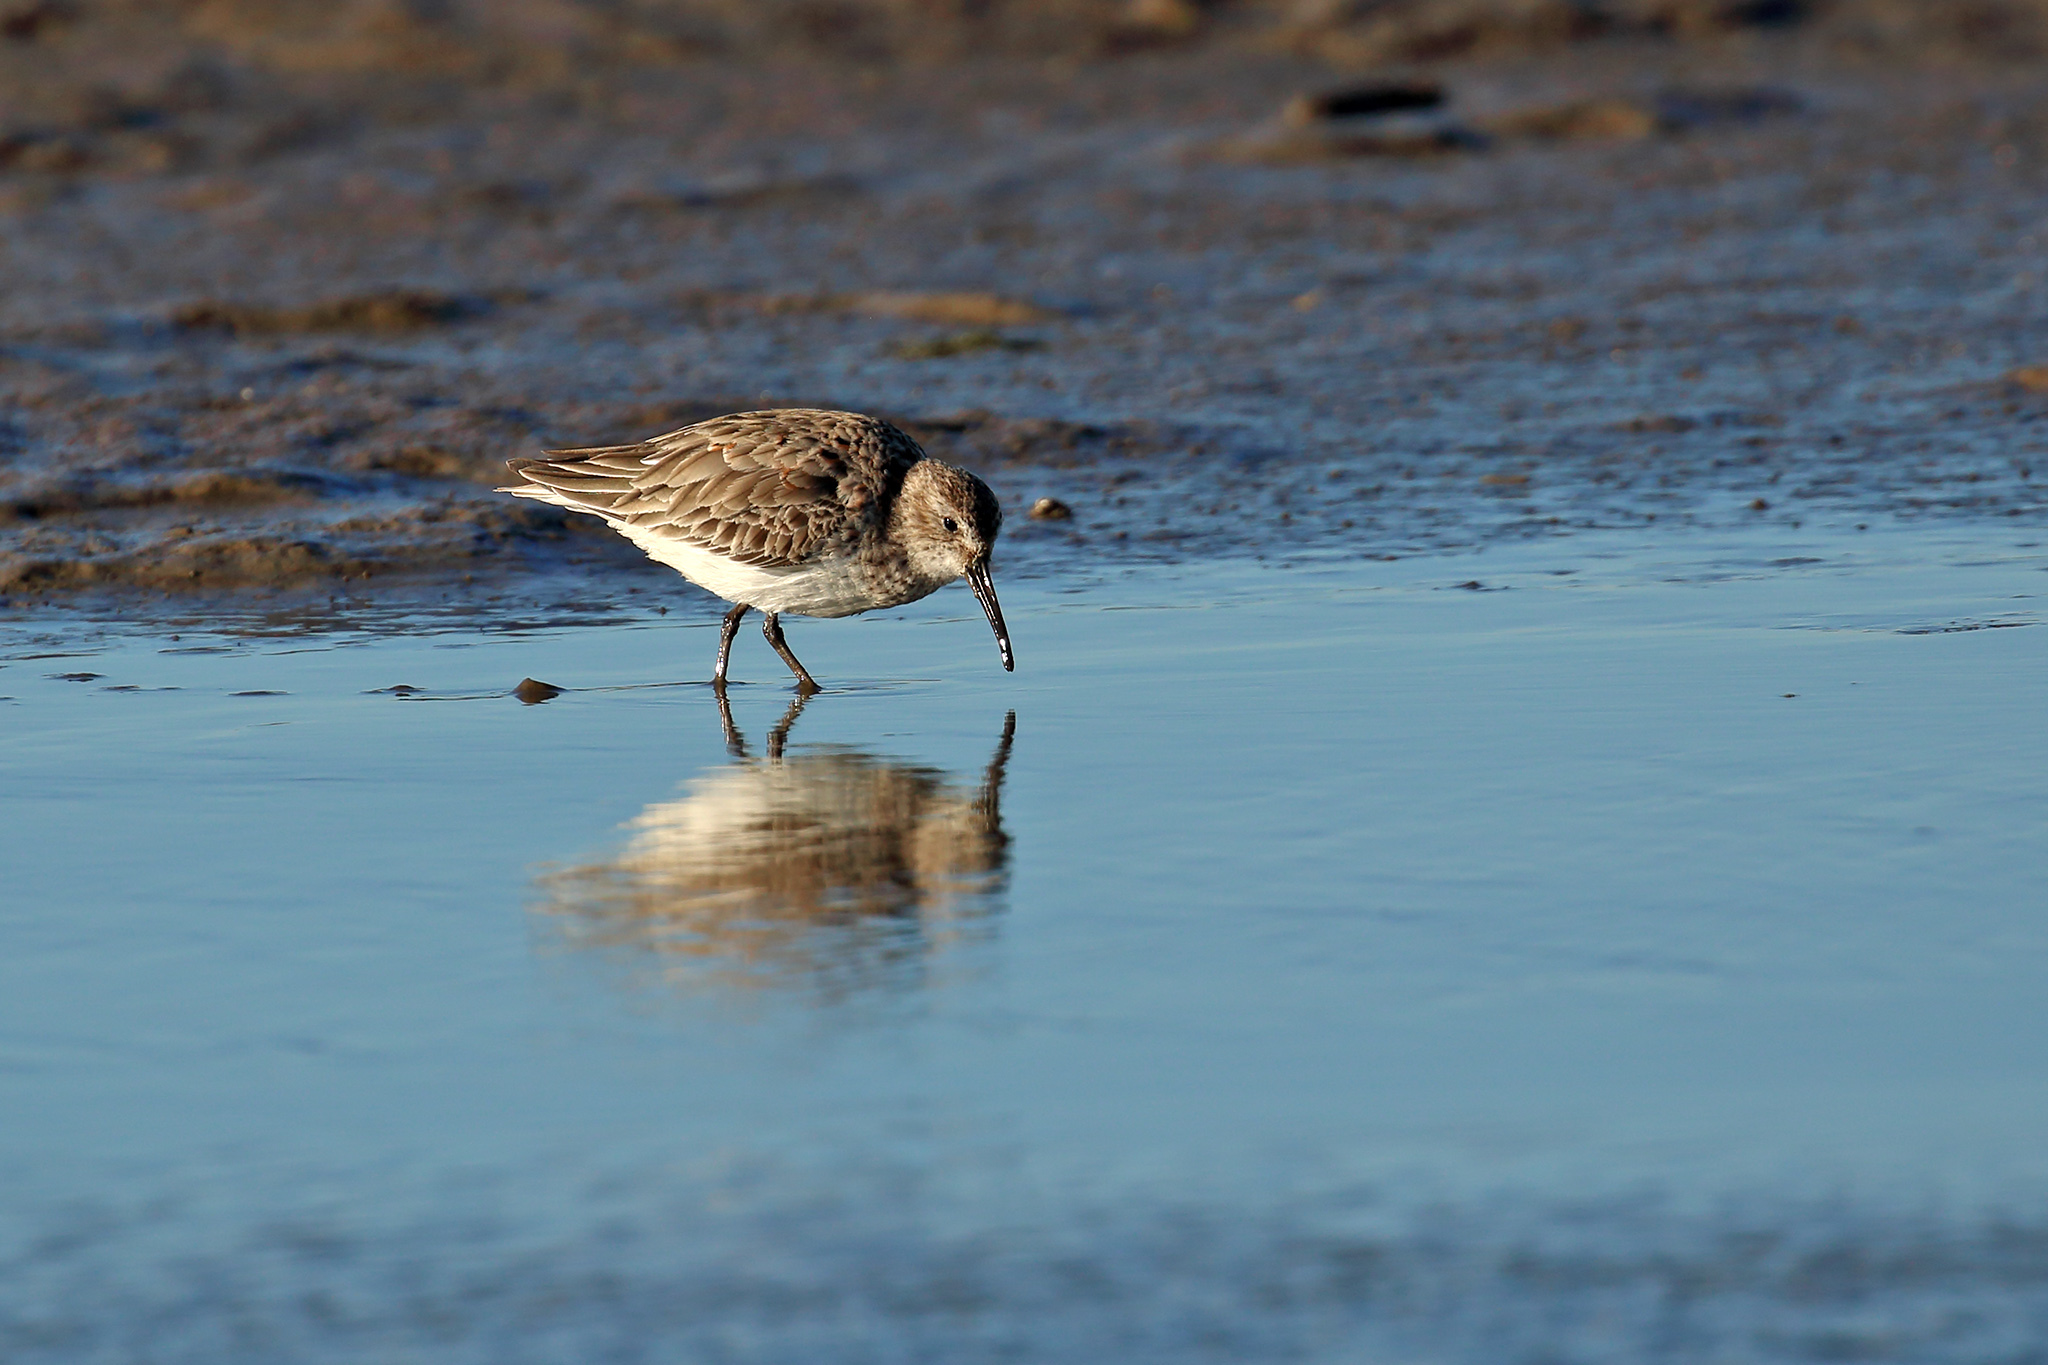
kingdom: Animalia
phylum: Chordata
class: Aves
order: Charadriiformes
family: Scolopacidae
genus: Calidris
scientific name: Calidris alpina
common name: Dunlin
